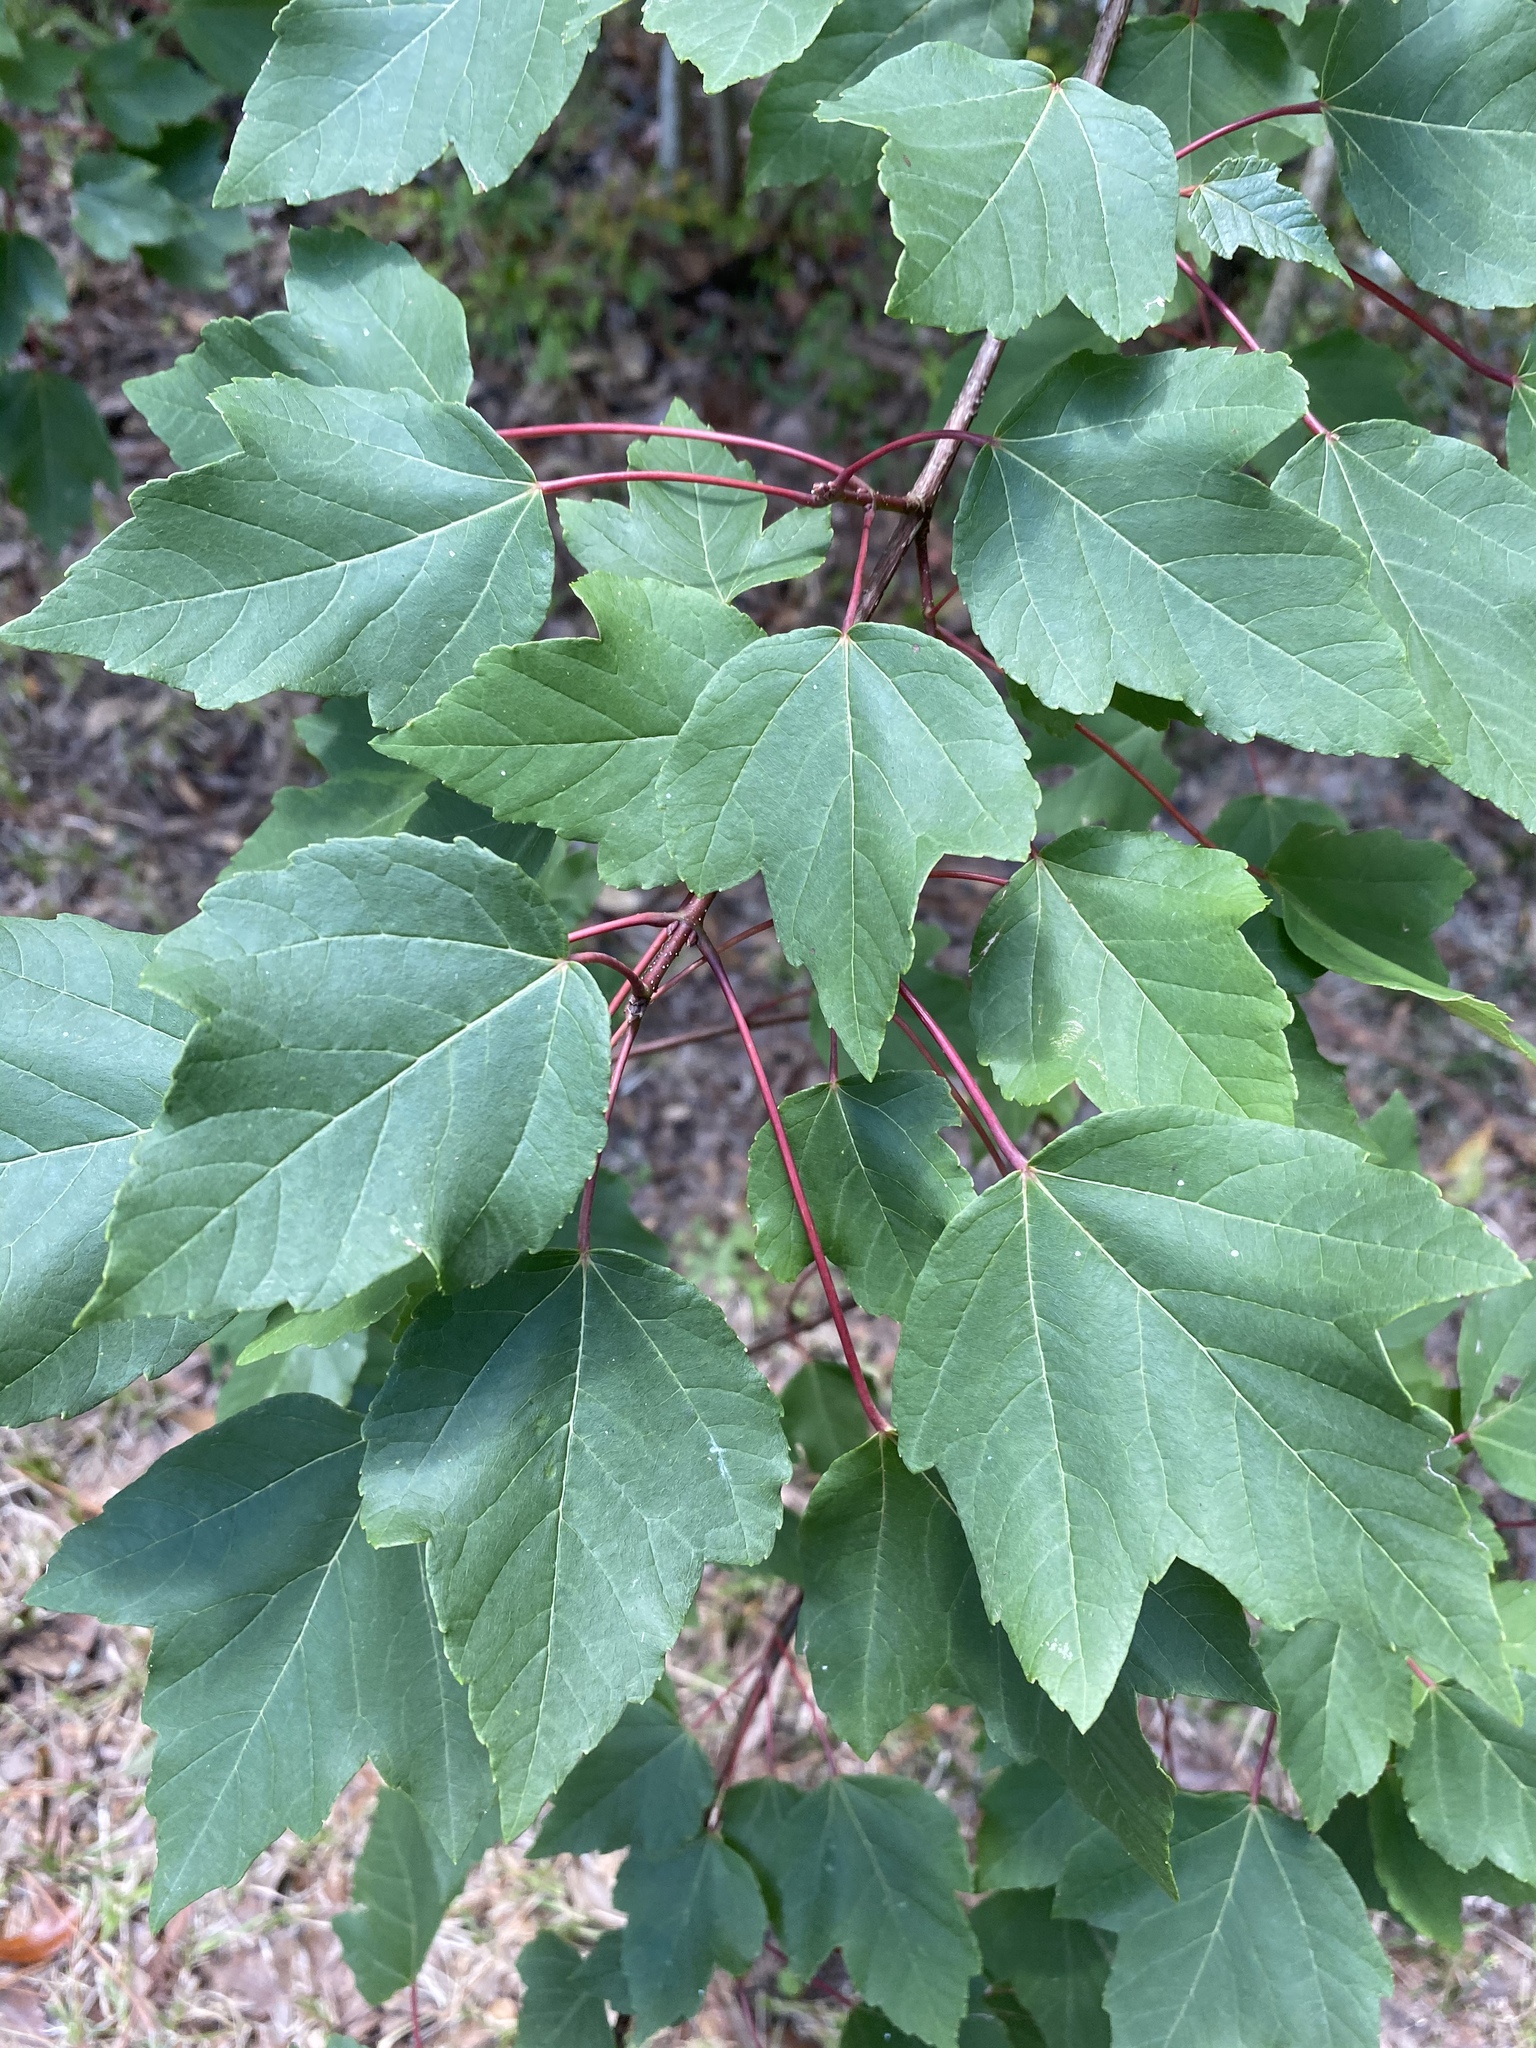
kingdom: Plantae
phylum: Tracheophyta
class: Magnoliopsida
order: Sapindales
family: Sapindaceae
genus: Acer
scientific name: Acer rubrum
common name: Red maple
